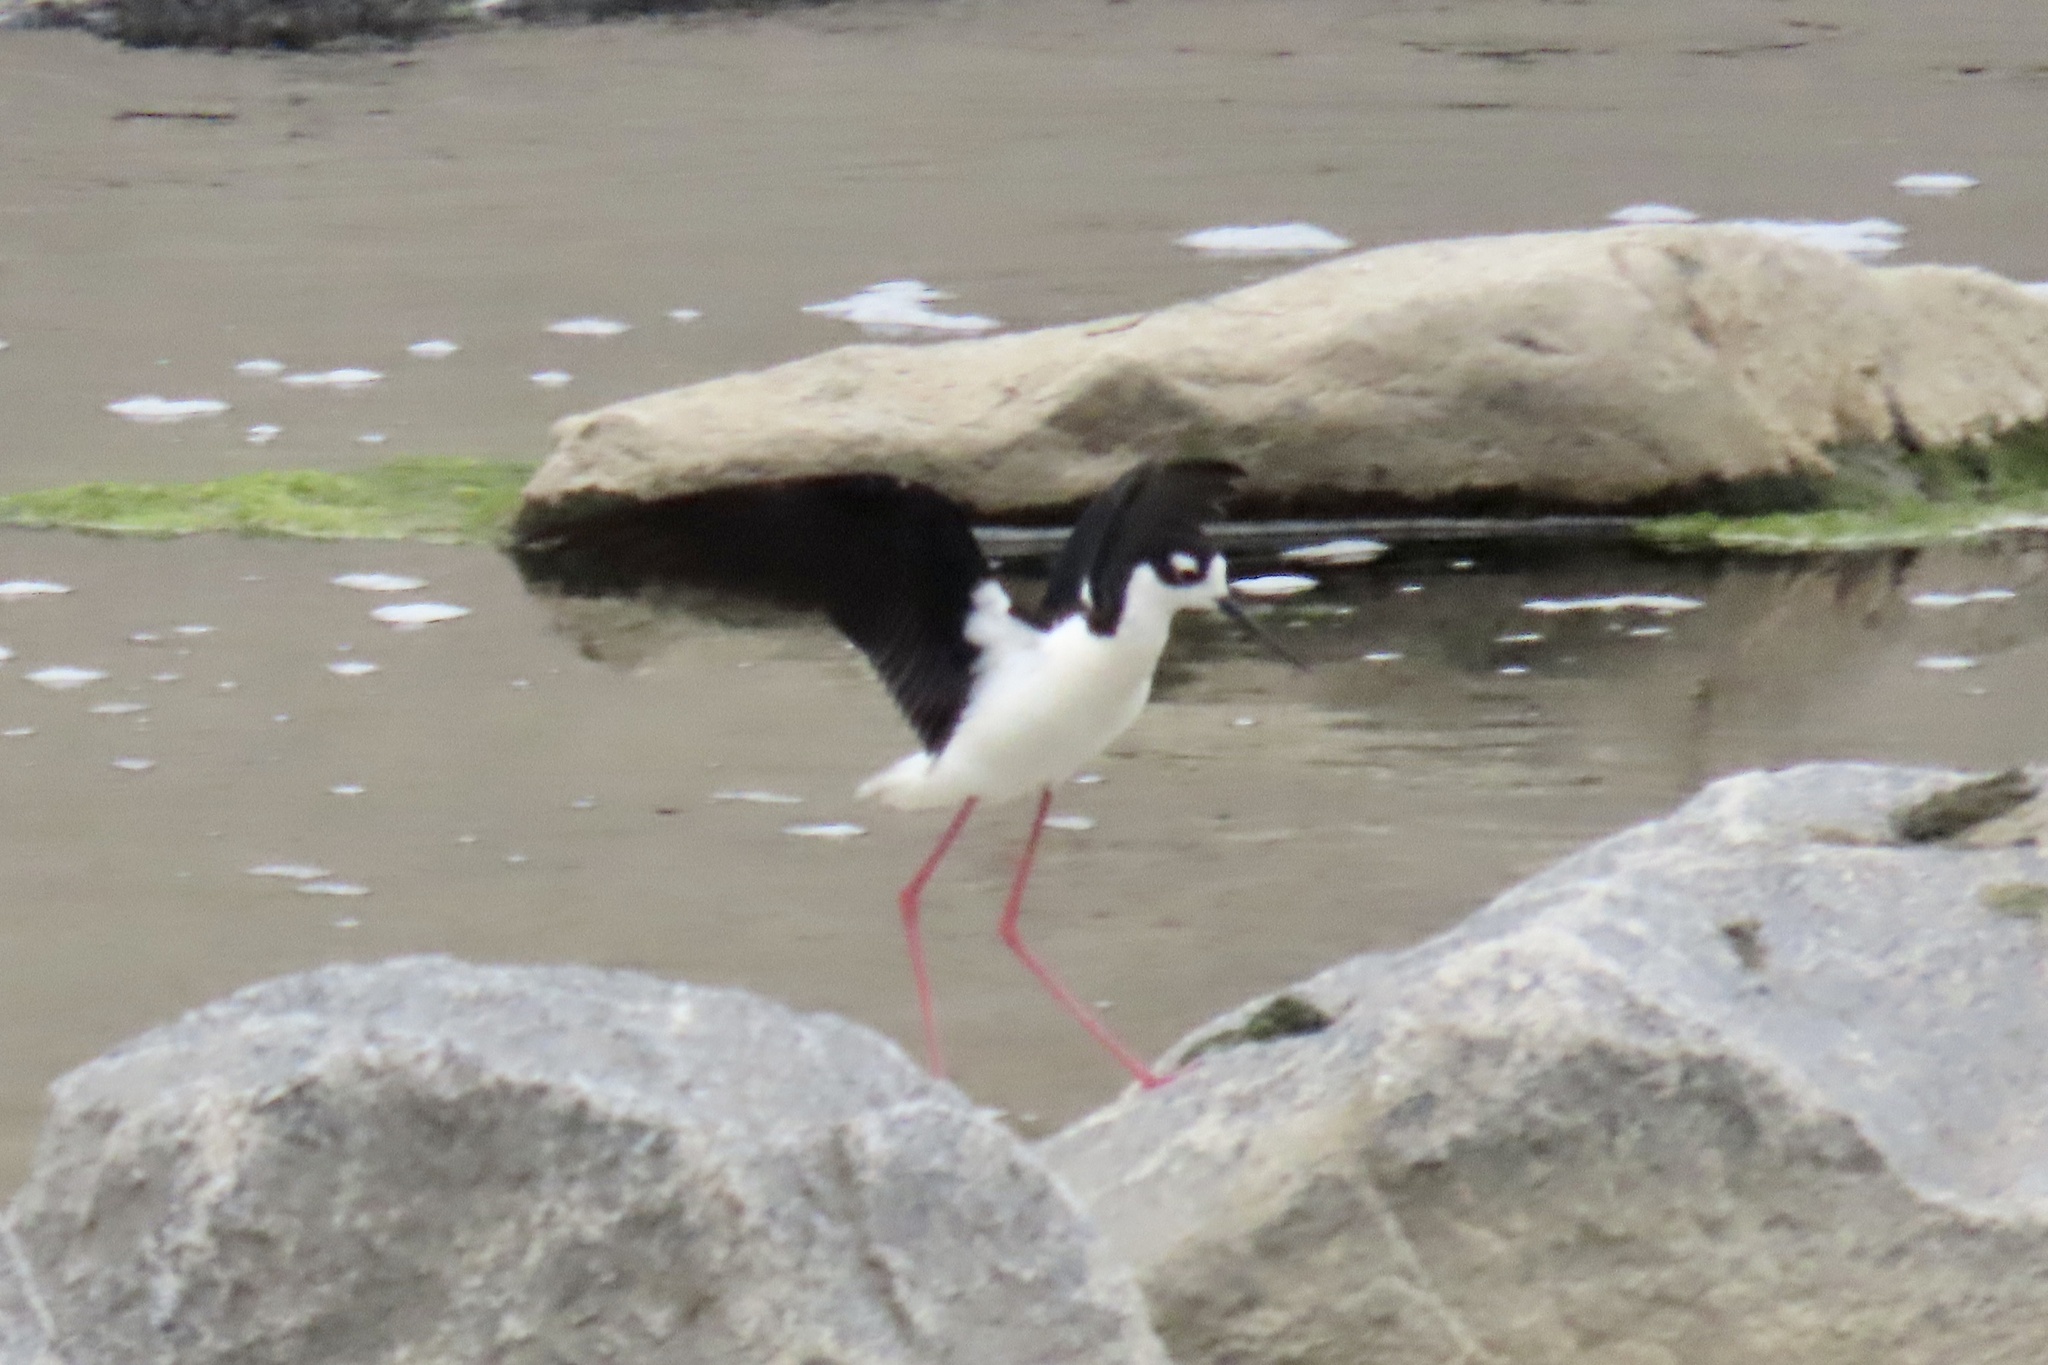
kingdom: Animalia
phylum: Chordata
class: Aves
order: Charadriiformes
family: Recurvirostridae
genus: Himantopus
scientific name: Himantopus mexicanus
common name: Black-necked stilt
